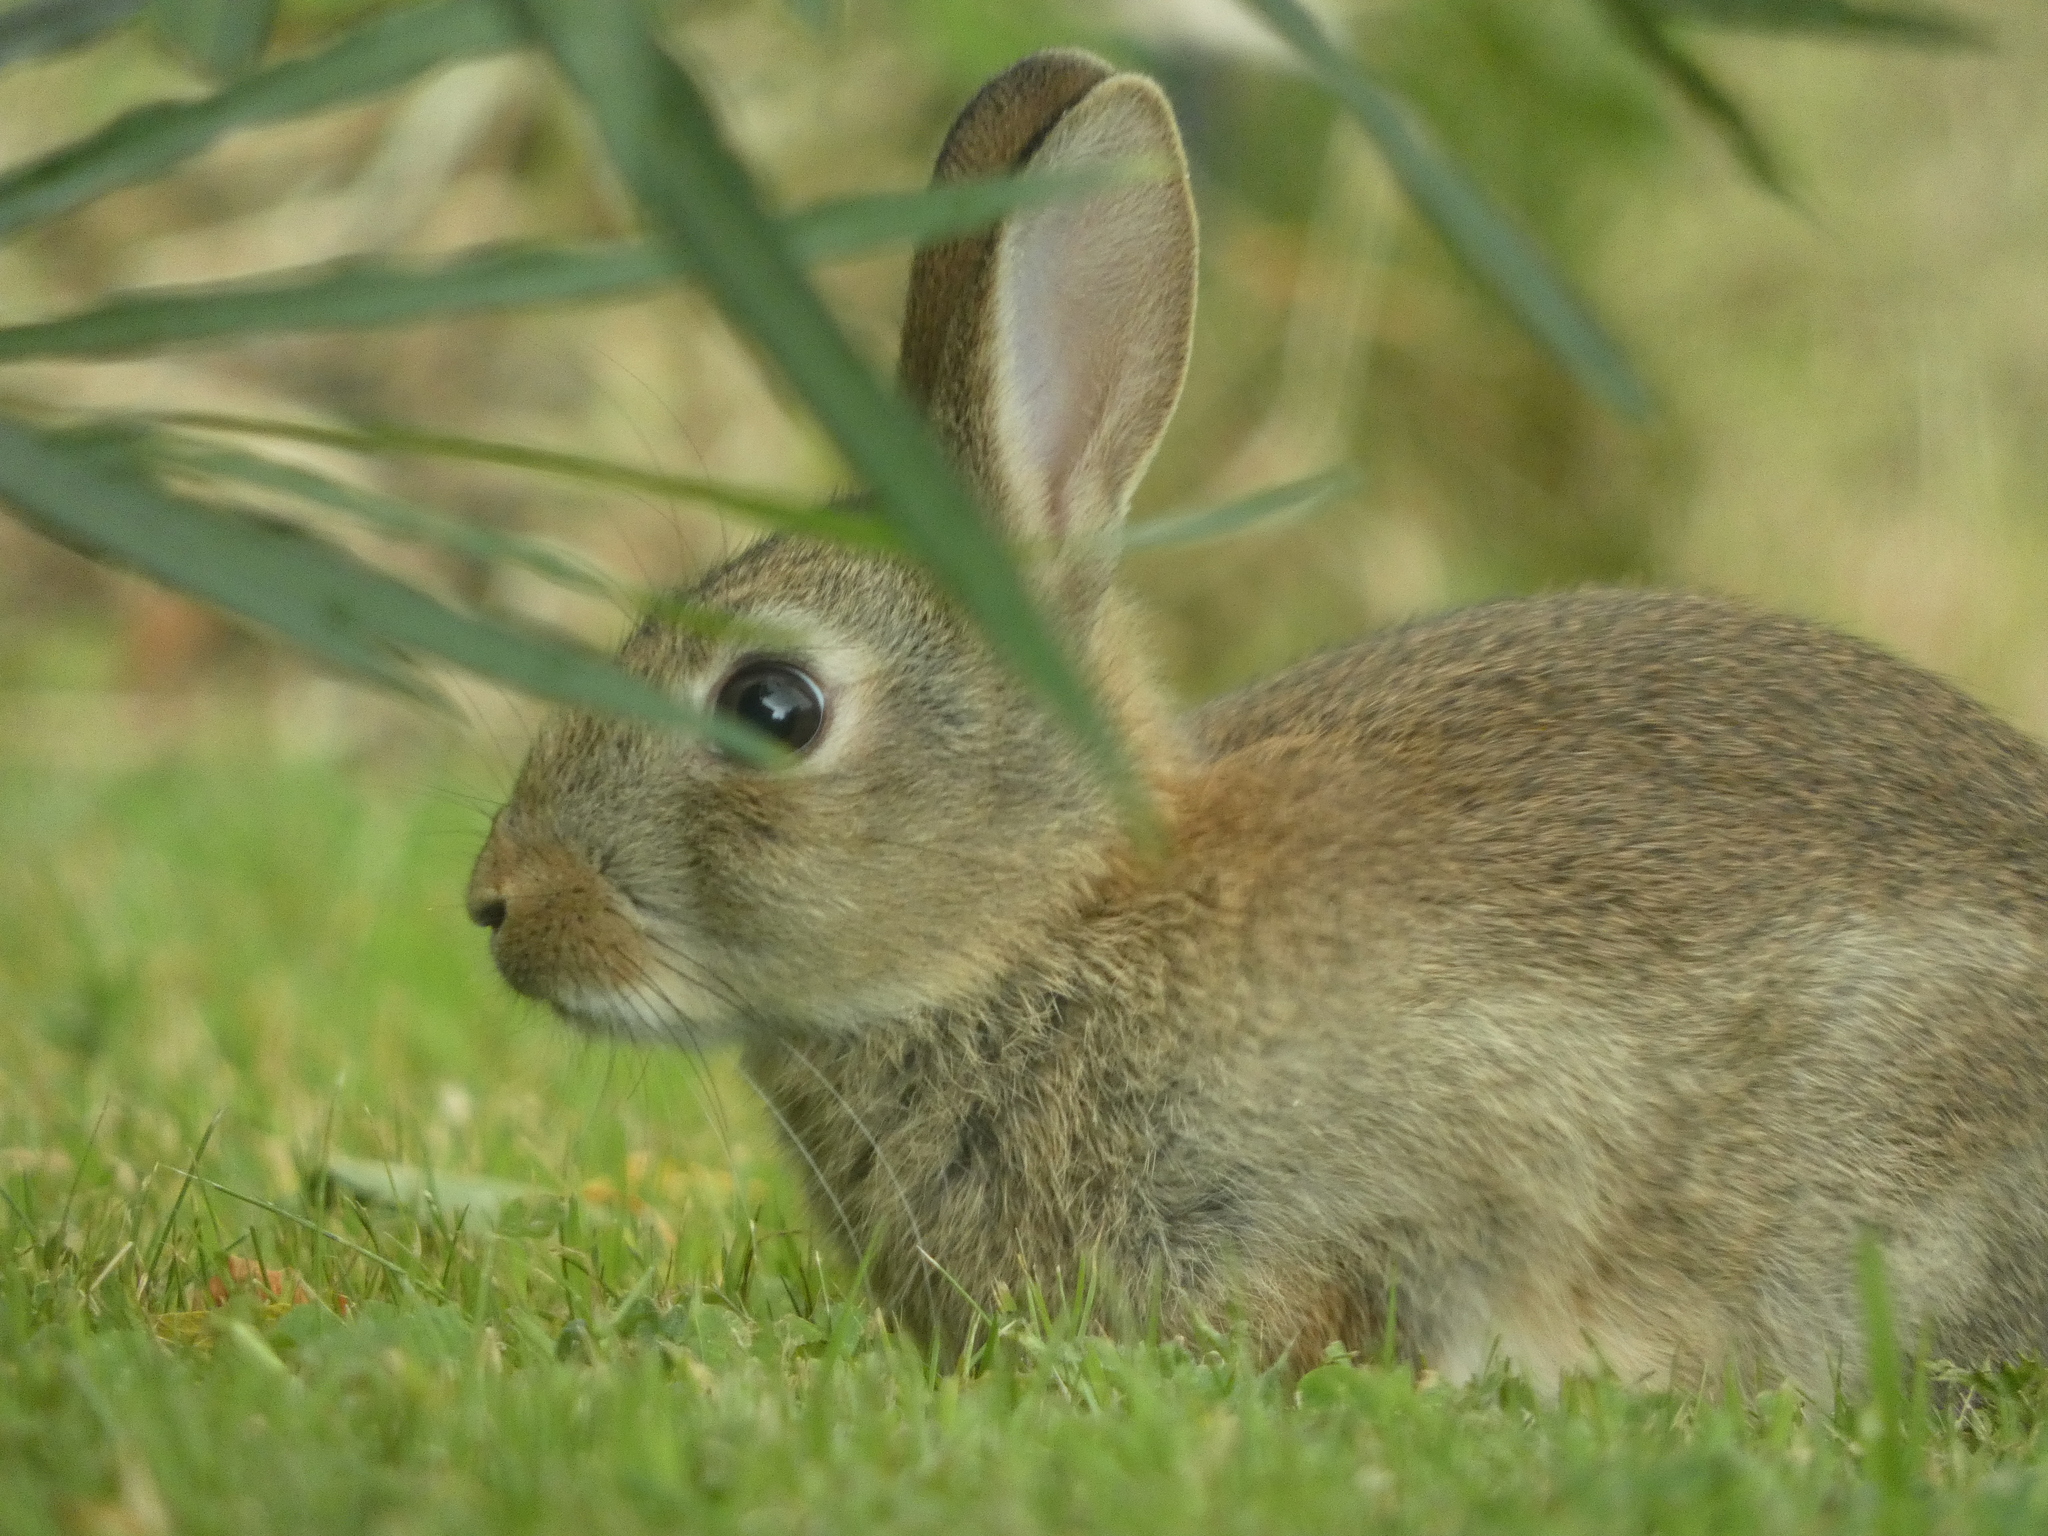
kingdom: Animalia
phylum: Chordata
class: Mammalia
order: Lagomorpha
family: Leporidae
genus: Oryctolagus
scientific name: Oryctolagus cuniculus
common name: European rabbit
